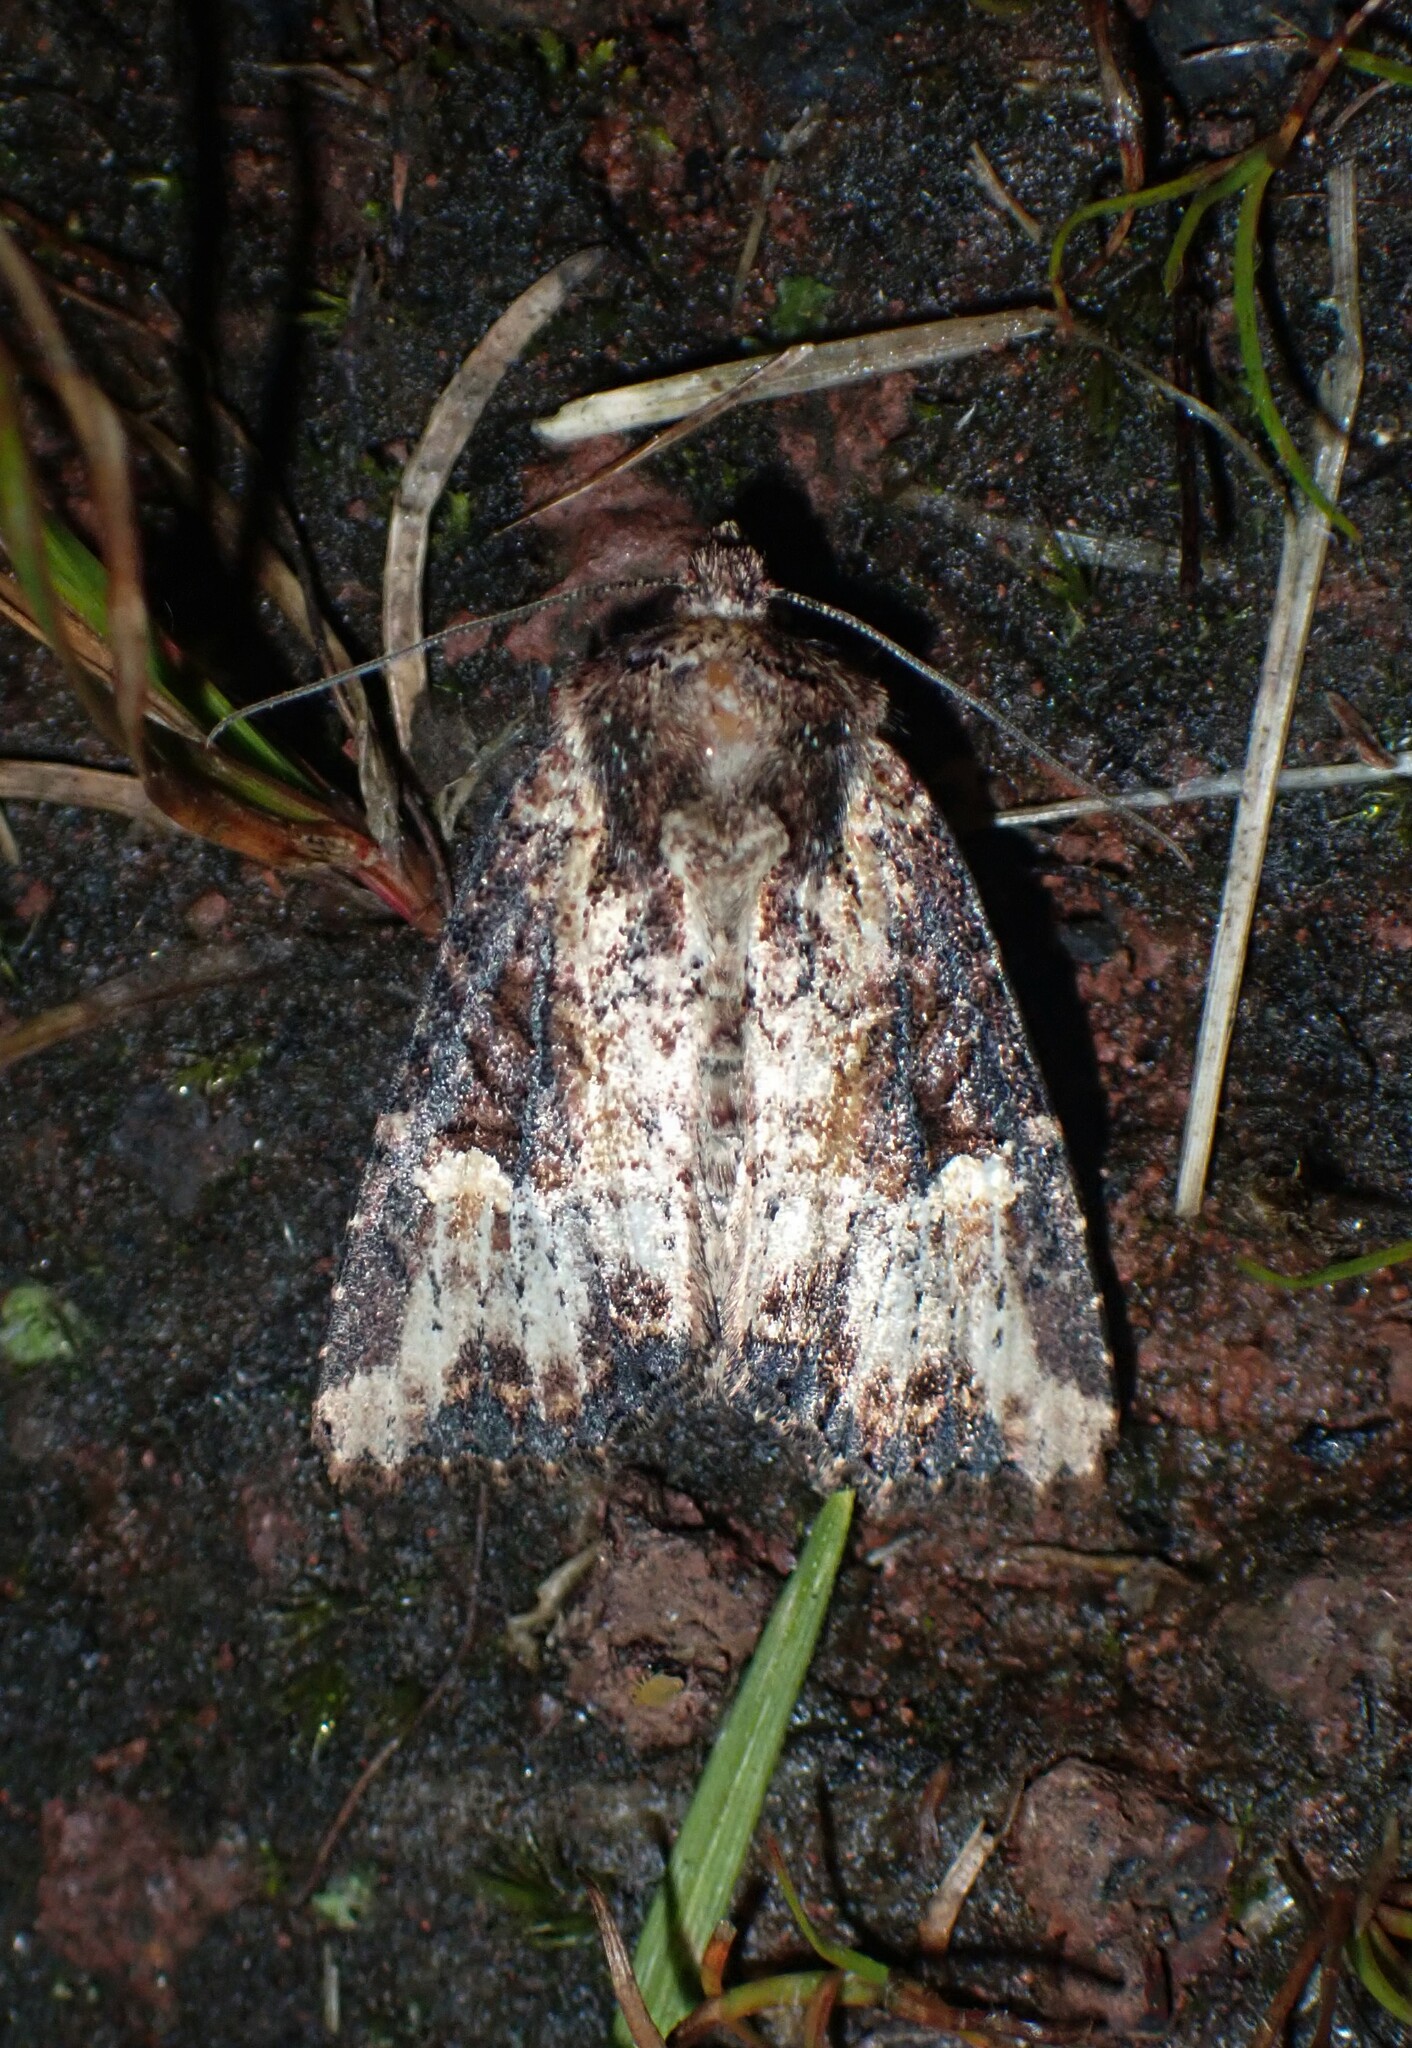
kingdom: Animalia
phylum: Arthropoda
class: Insecta
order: Lepidoptera
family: Noctuidae
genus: Mesapamea
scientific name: Mesapamea storai
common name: Owlet moth
